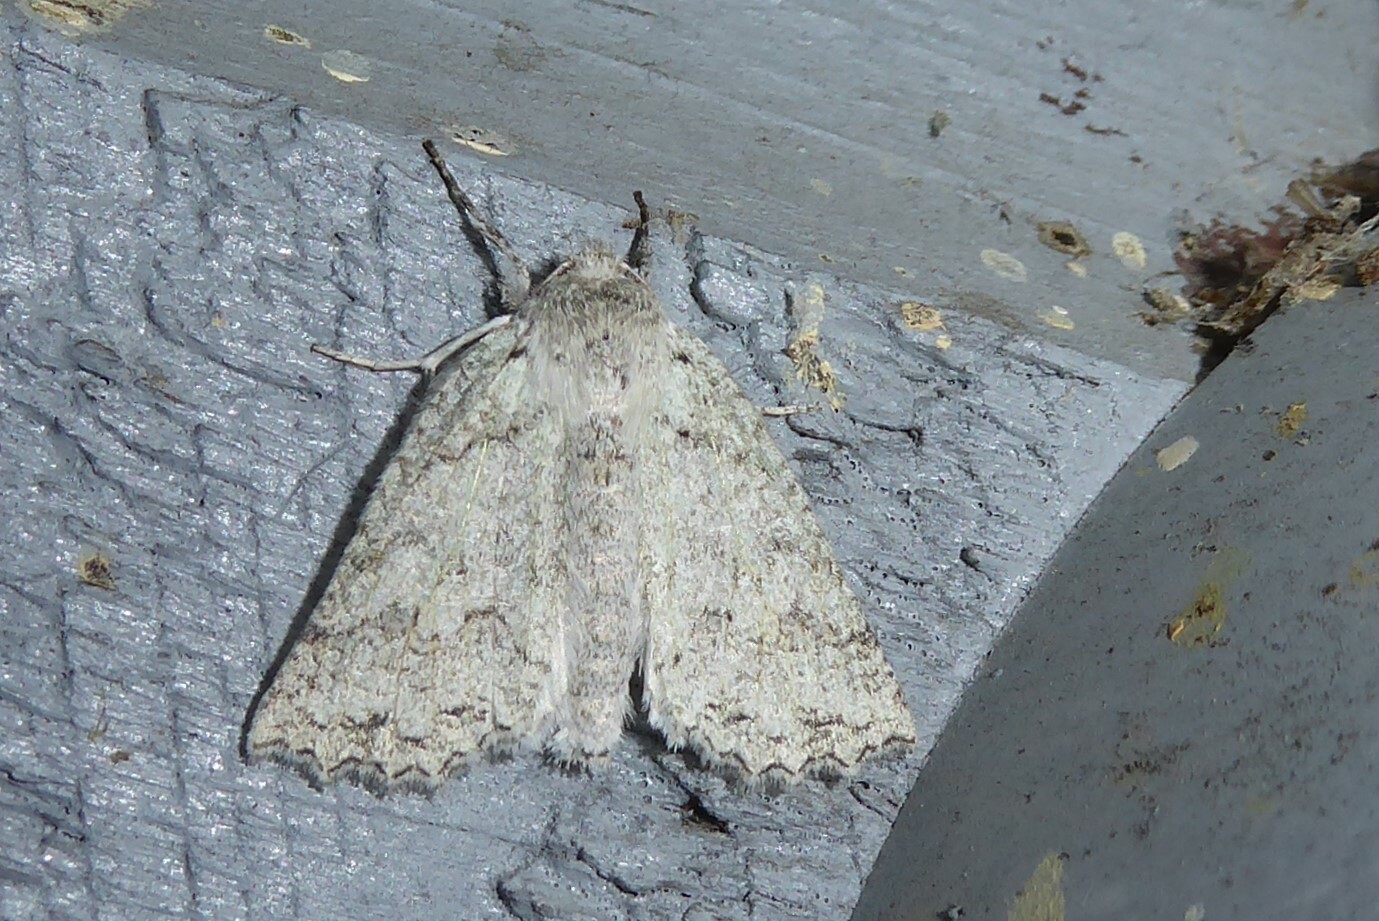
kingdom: Animalia
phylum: Arthropoda
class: Insecta
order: Lepidoptera
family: Geometridae
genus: Declana
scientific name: Declana niveata
